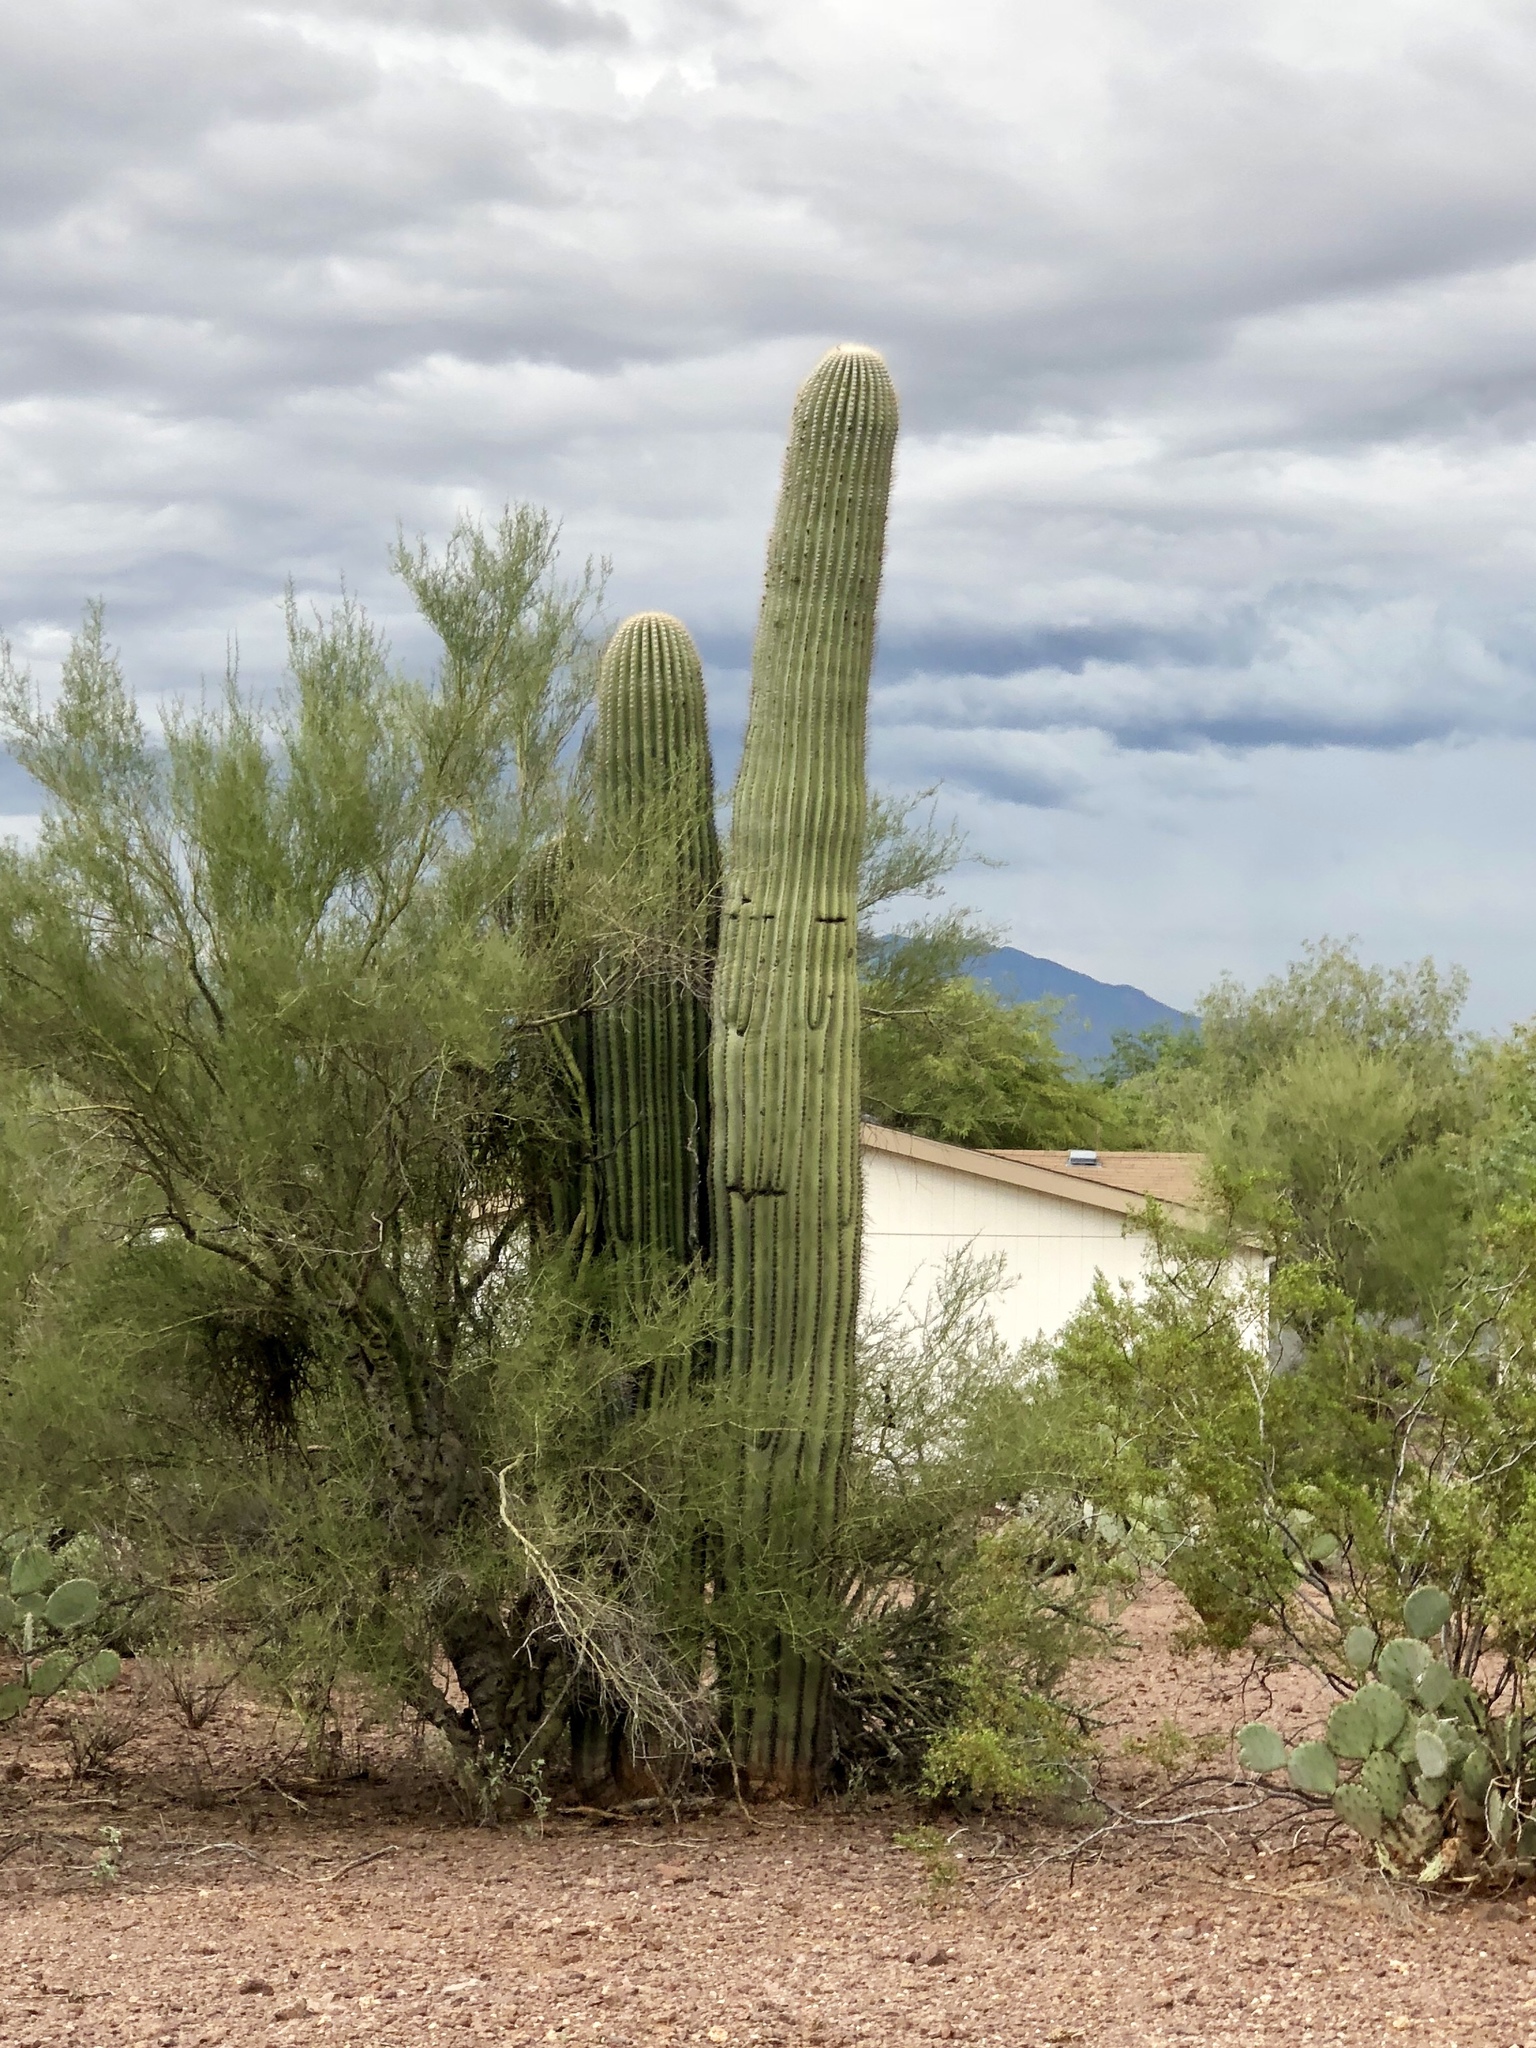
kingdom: Plantae
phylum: Tracheophyta
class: Magnoliopsida
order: Caryophyllales
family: Cactaceae
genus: Carnegiea
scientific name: Carnegiea gigantea
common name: Saguaro
